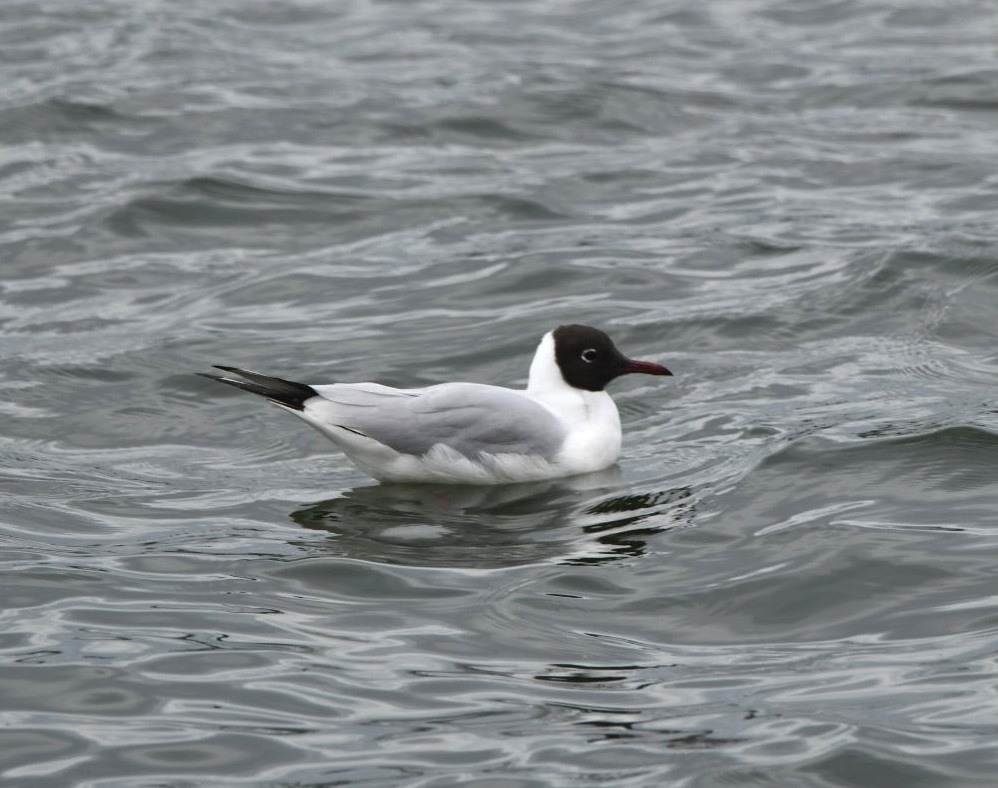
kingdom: Animalia
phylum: Chordata
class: Aves
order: Charadriiformes
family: Laridae
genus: Chroicocephalus
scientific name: Chroicocephalus ridibundus
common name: Black-headed gull
